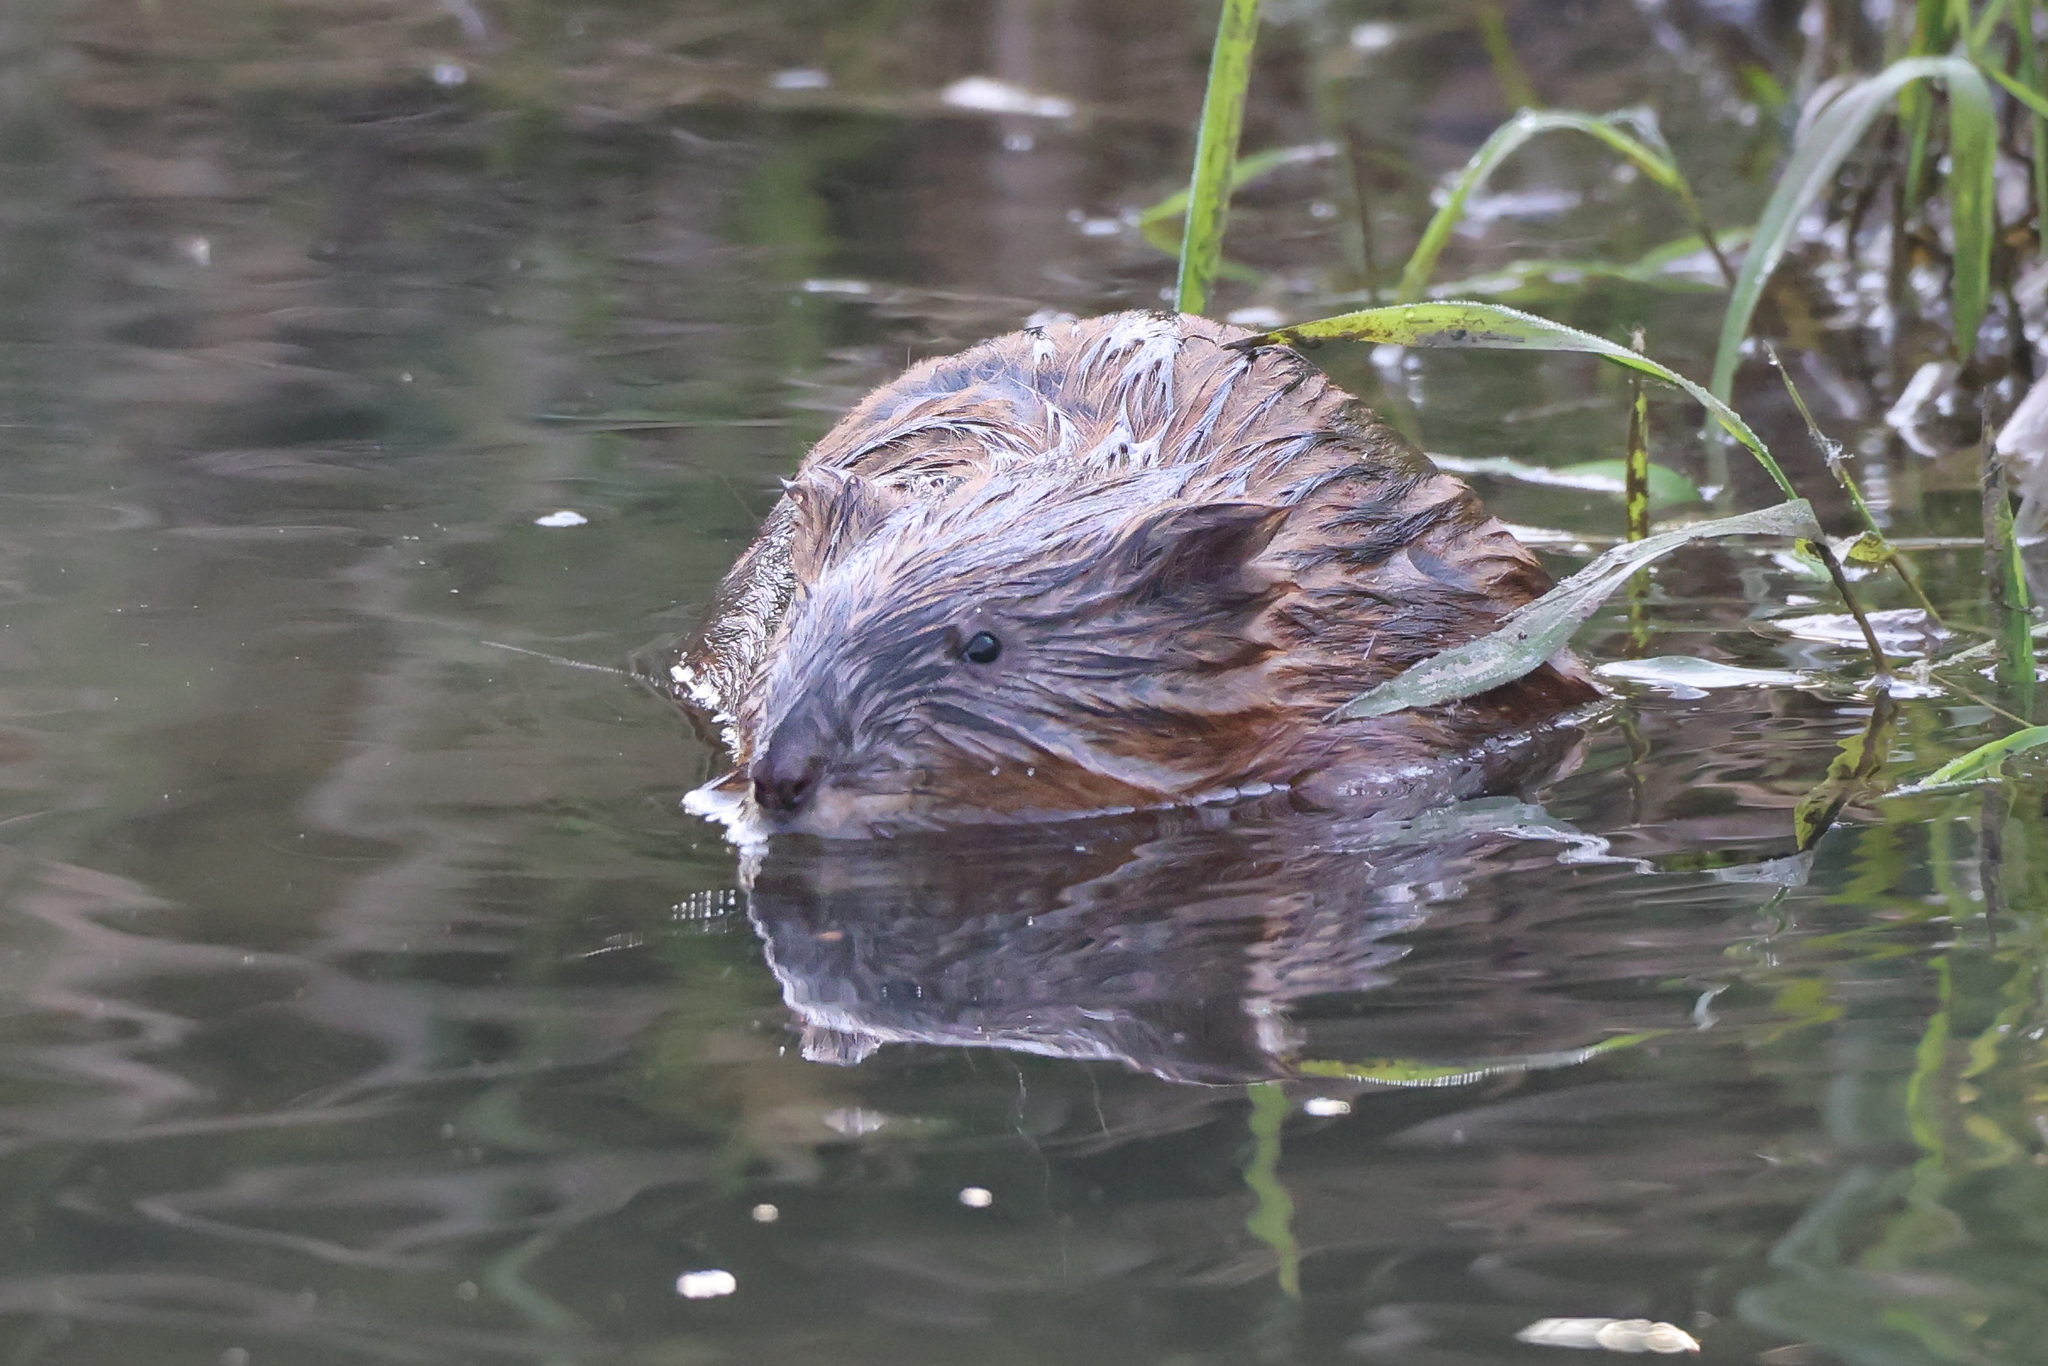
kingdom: Animalia
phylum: Chordata
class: Mammalia
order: Rodentia
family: Cricetidae
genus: Ondatra
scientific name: Ondatra zibethicus
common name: Muskrat
